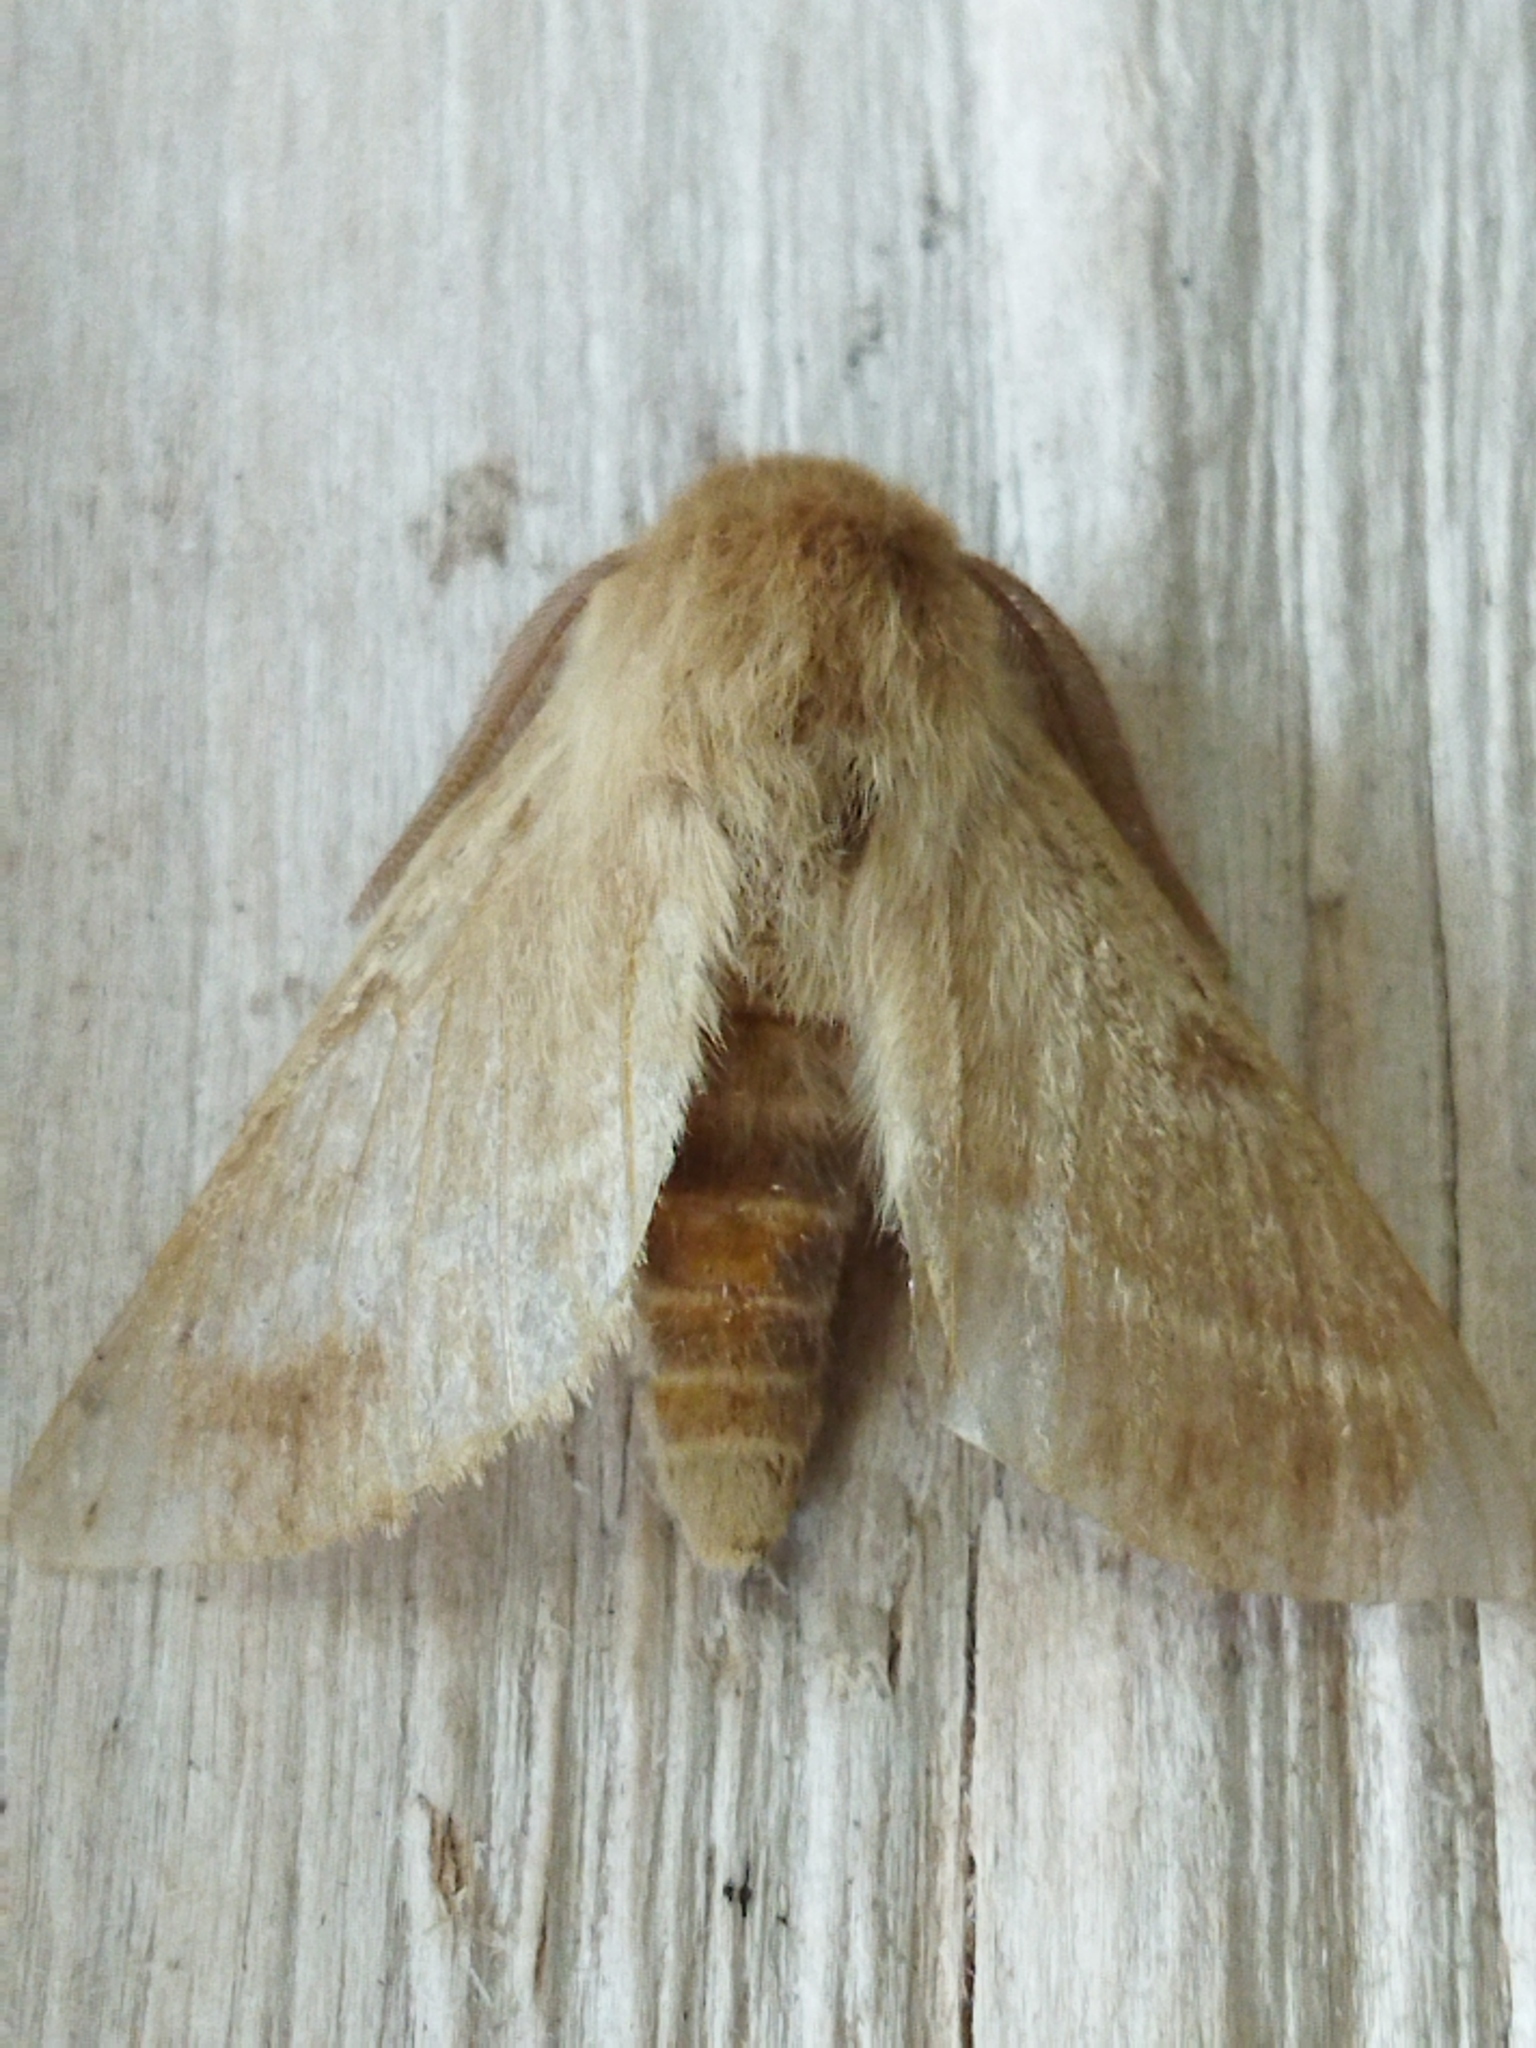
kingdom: Animalia
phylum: Arthropoda
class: Insecta
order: Lepidoptera
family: Brahmaeidae
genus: Lemonia
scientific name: Lemonia balcanica
